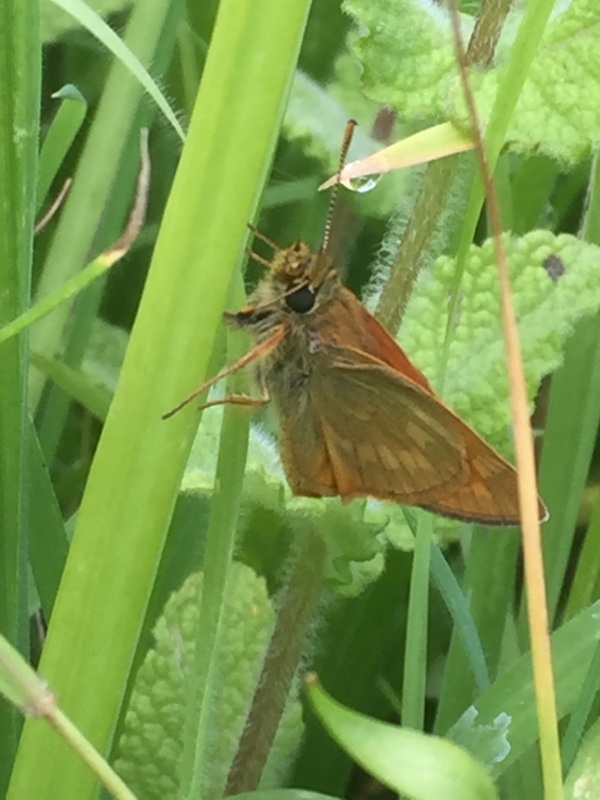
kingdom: Animalia
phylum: Arthropoda
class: Insecta
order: Lepidoptera
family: Hesperiidae
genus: Ochlodes
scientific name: Ochlodes venata
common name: Large skipper
